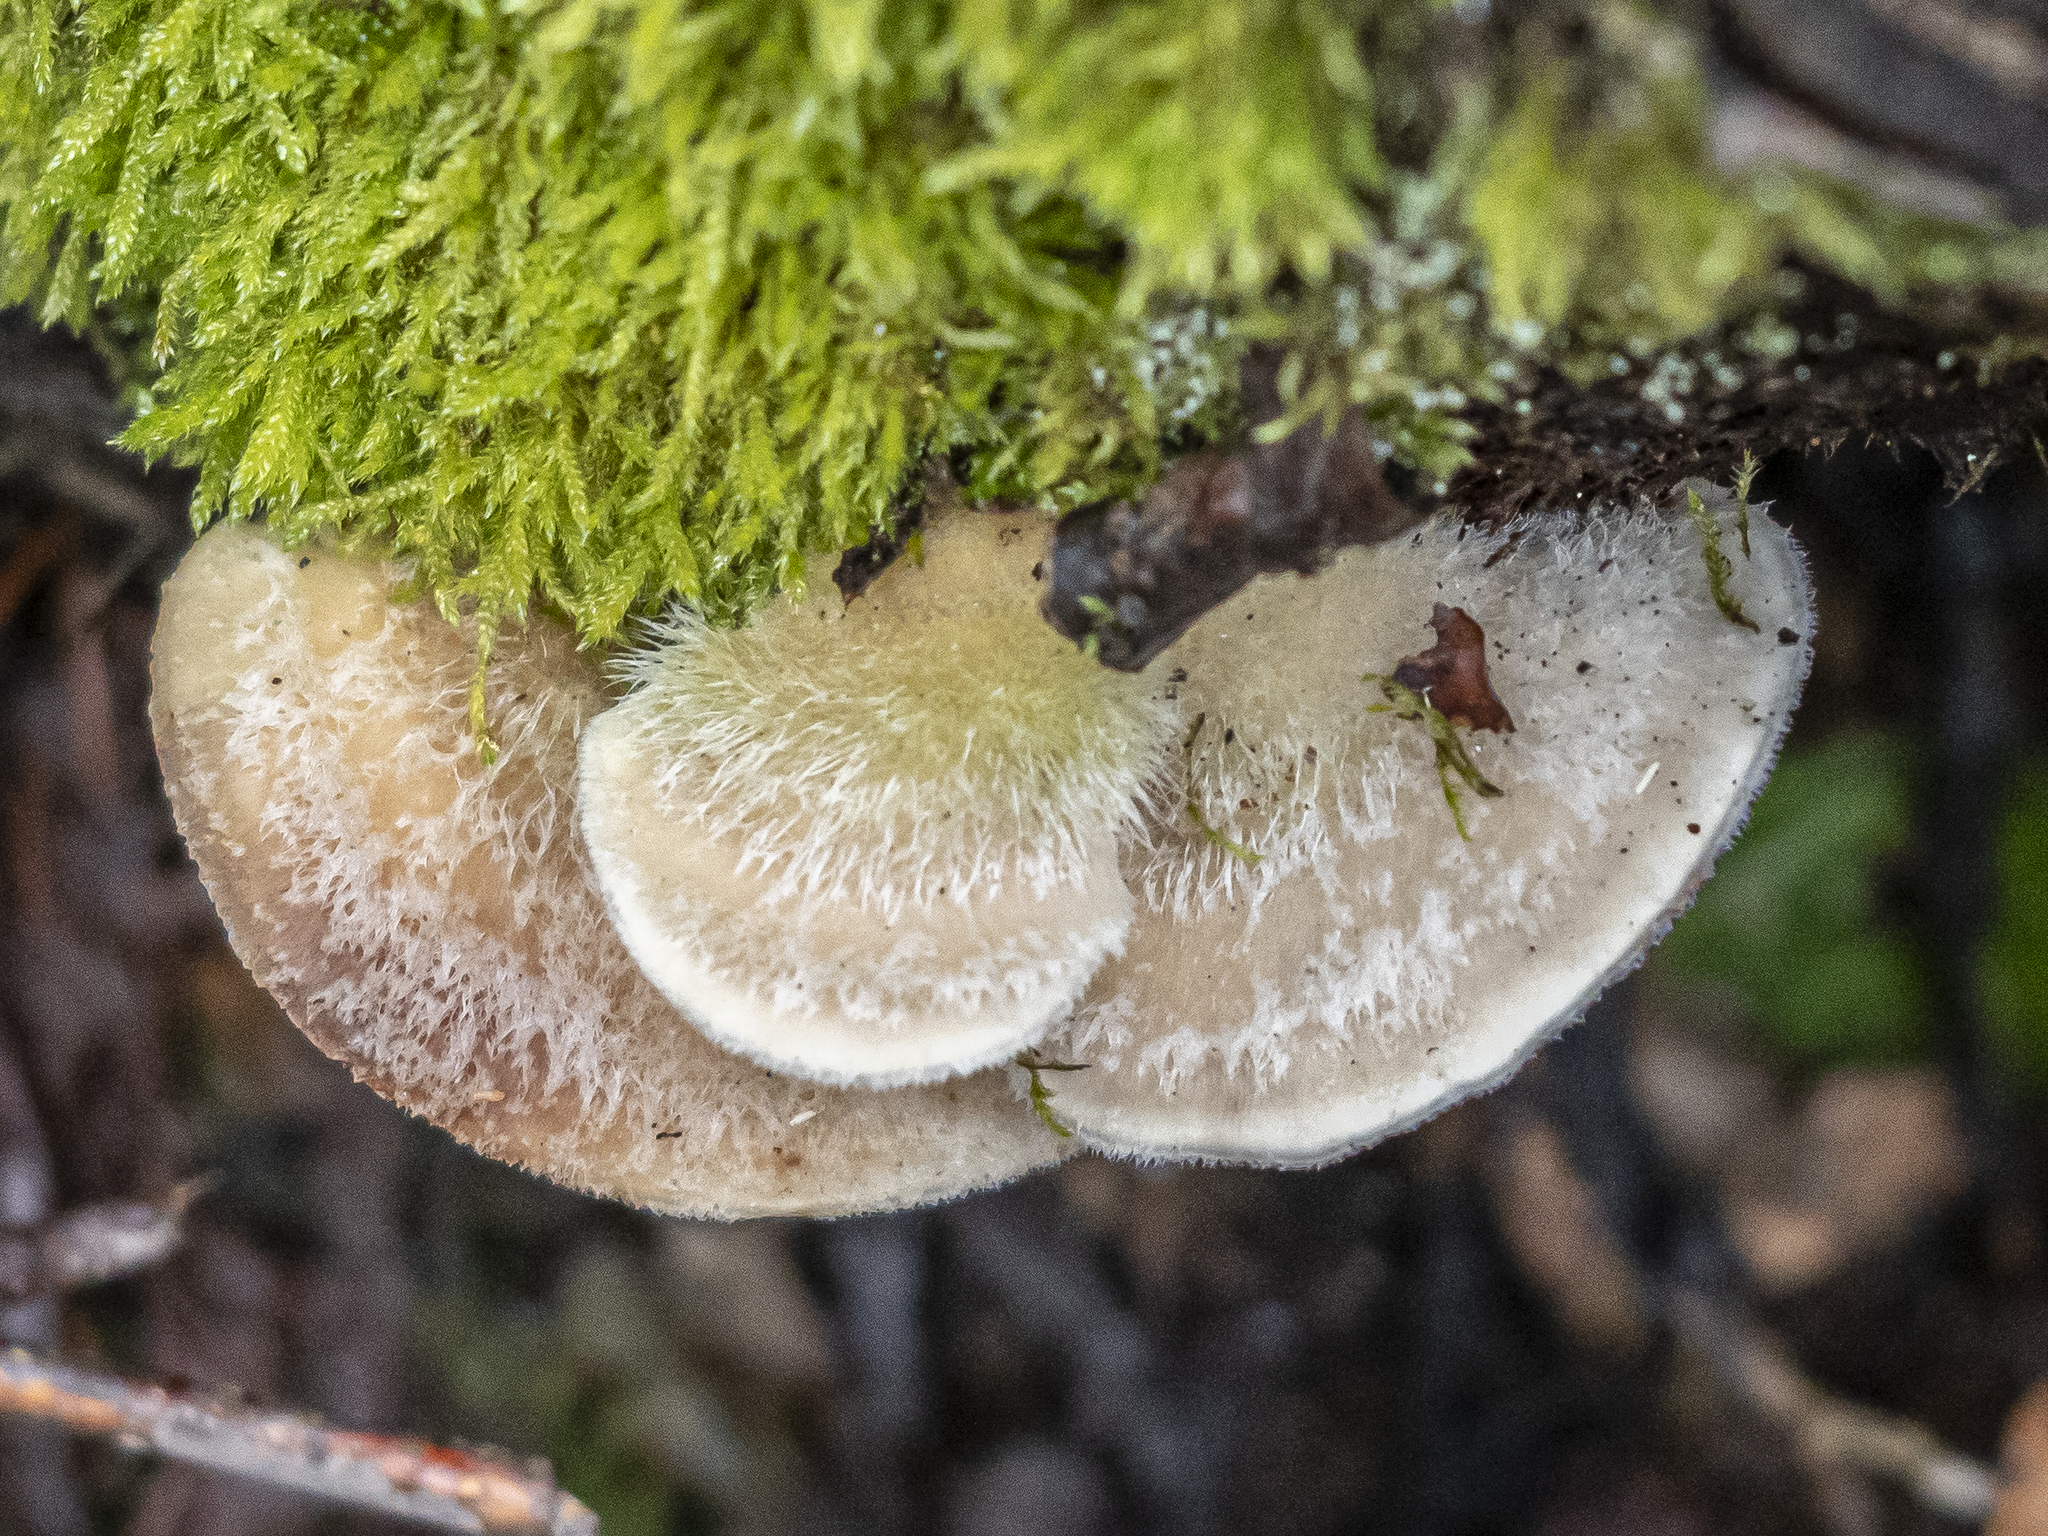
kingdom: Fungi
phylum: Basidiomycota
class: Agaricomycetes
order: Polyporales
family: Polyporaceae
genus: Trametes
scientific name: Trametes hirsuta
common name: Hairy bracket
